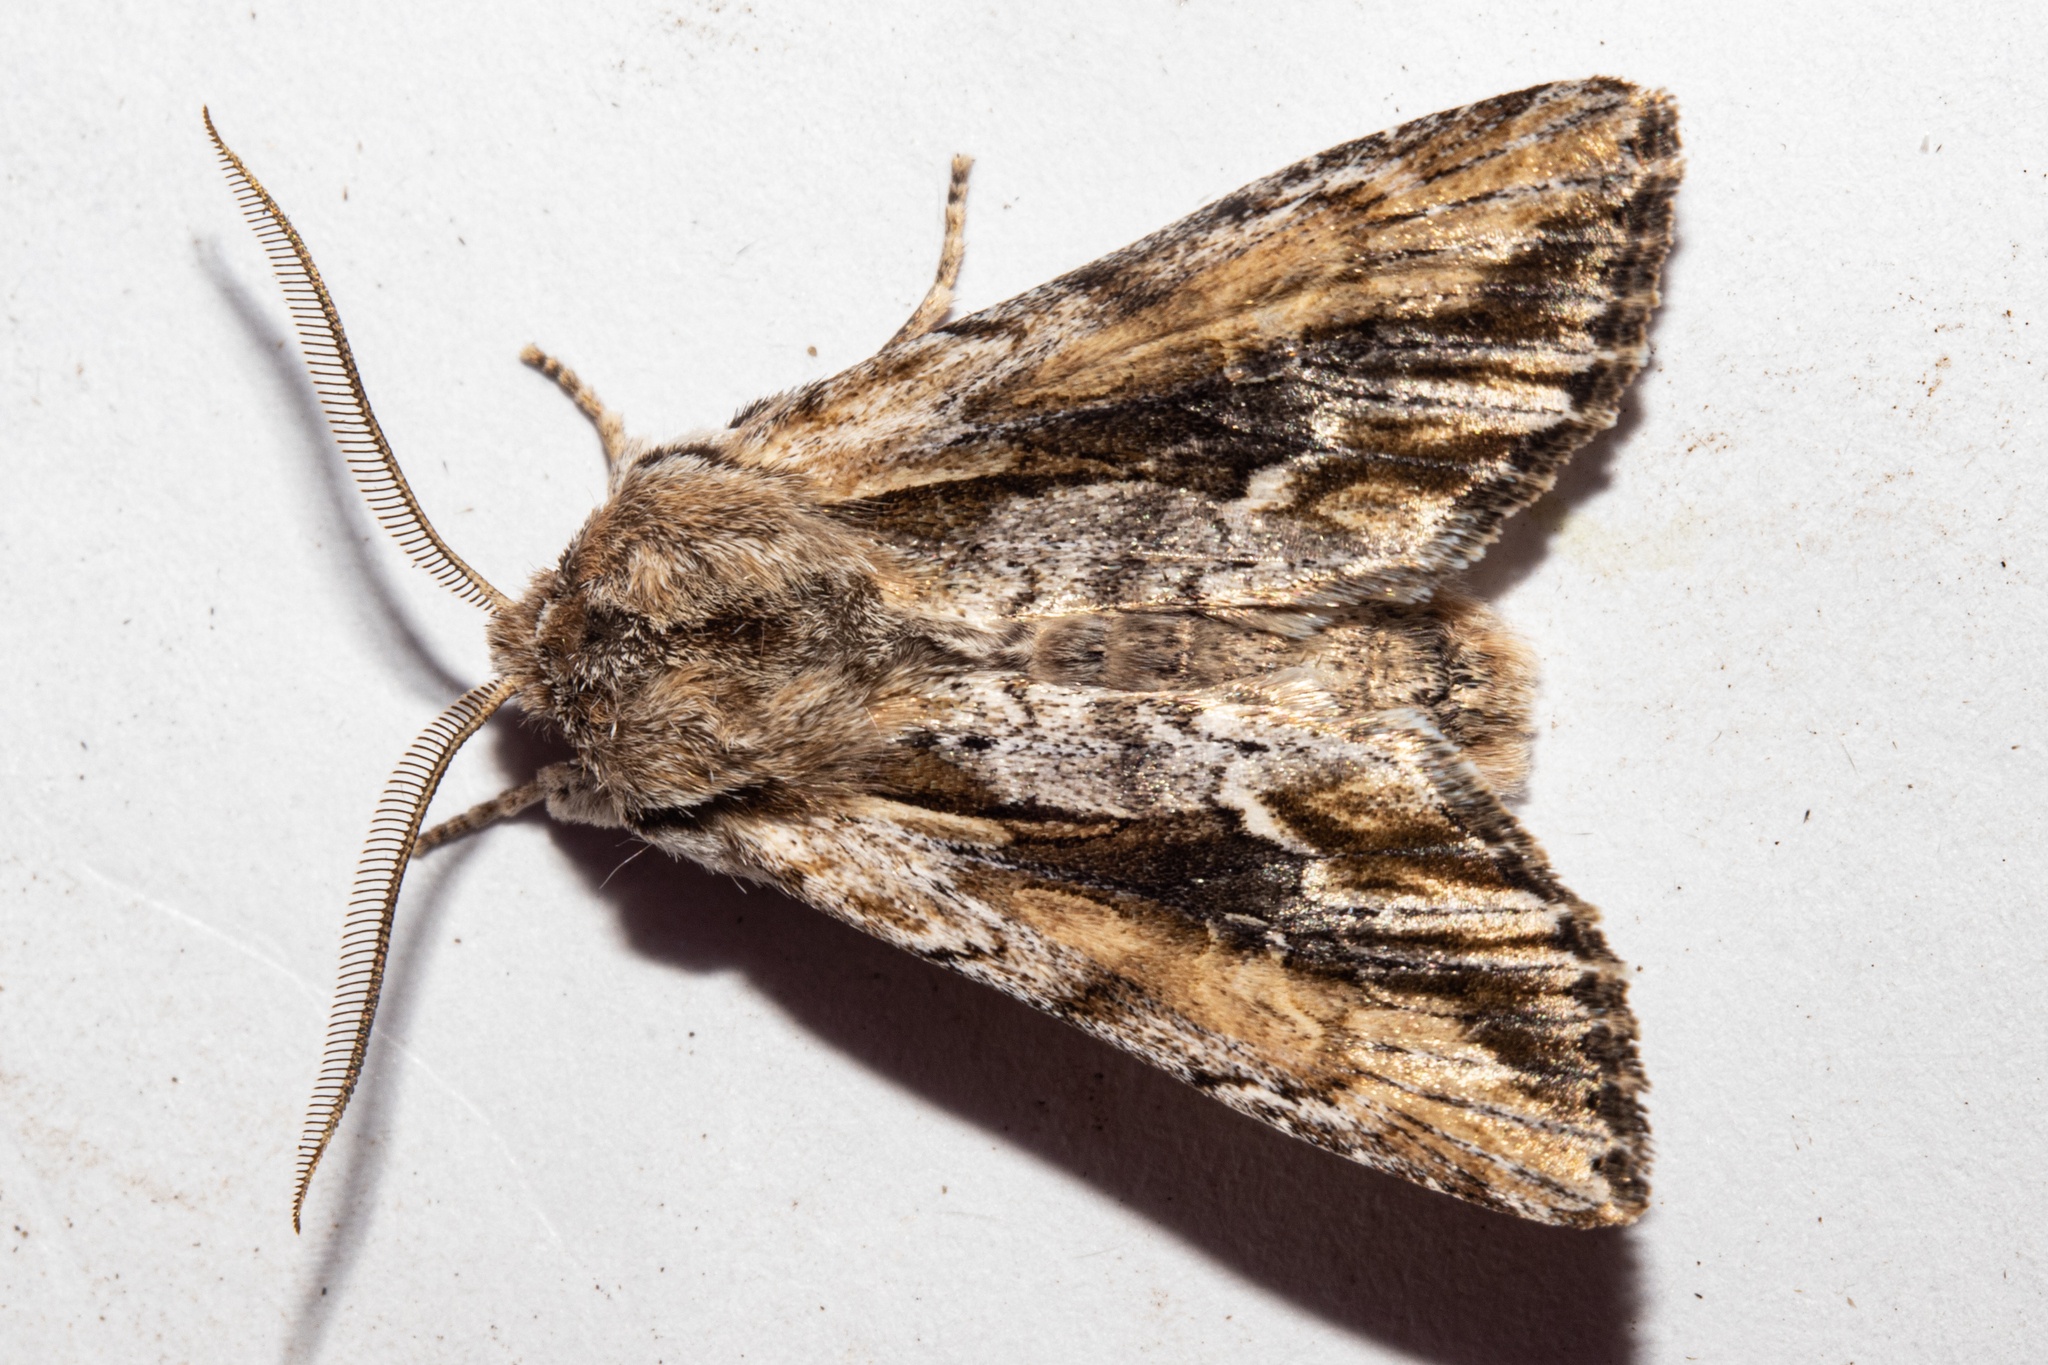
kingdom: Animalia
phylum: Arthropoda
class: Insecta
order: Lepidoptera
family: Noctuidae
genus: Ichneutica
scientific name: Ichneutica
